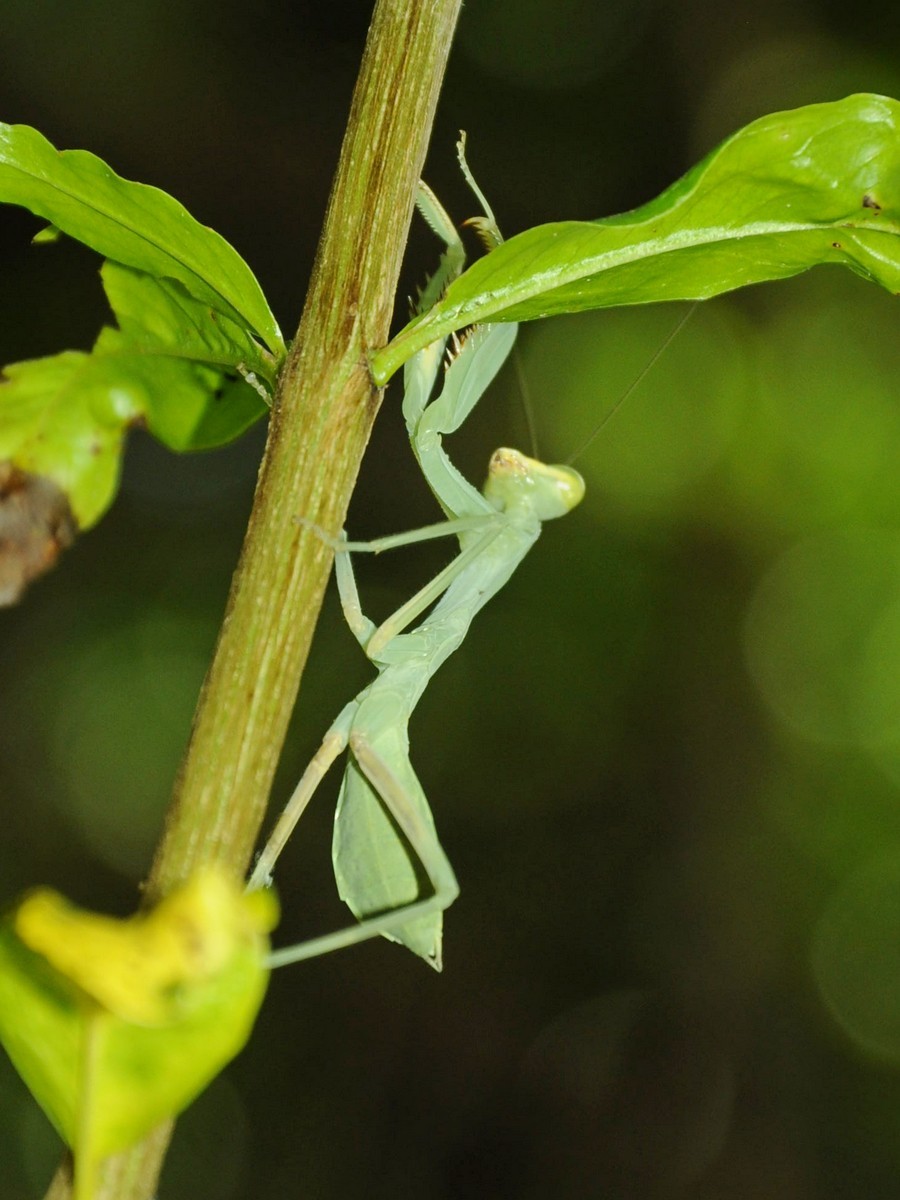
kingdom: Animalia
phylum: Arthropoda
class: Insecta
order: Mantodea
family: Mantidae
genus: Hierodula
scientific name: Hierodula tenuidentata
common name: Giant asian mantis
